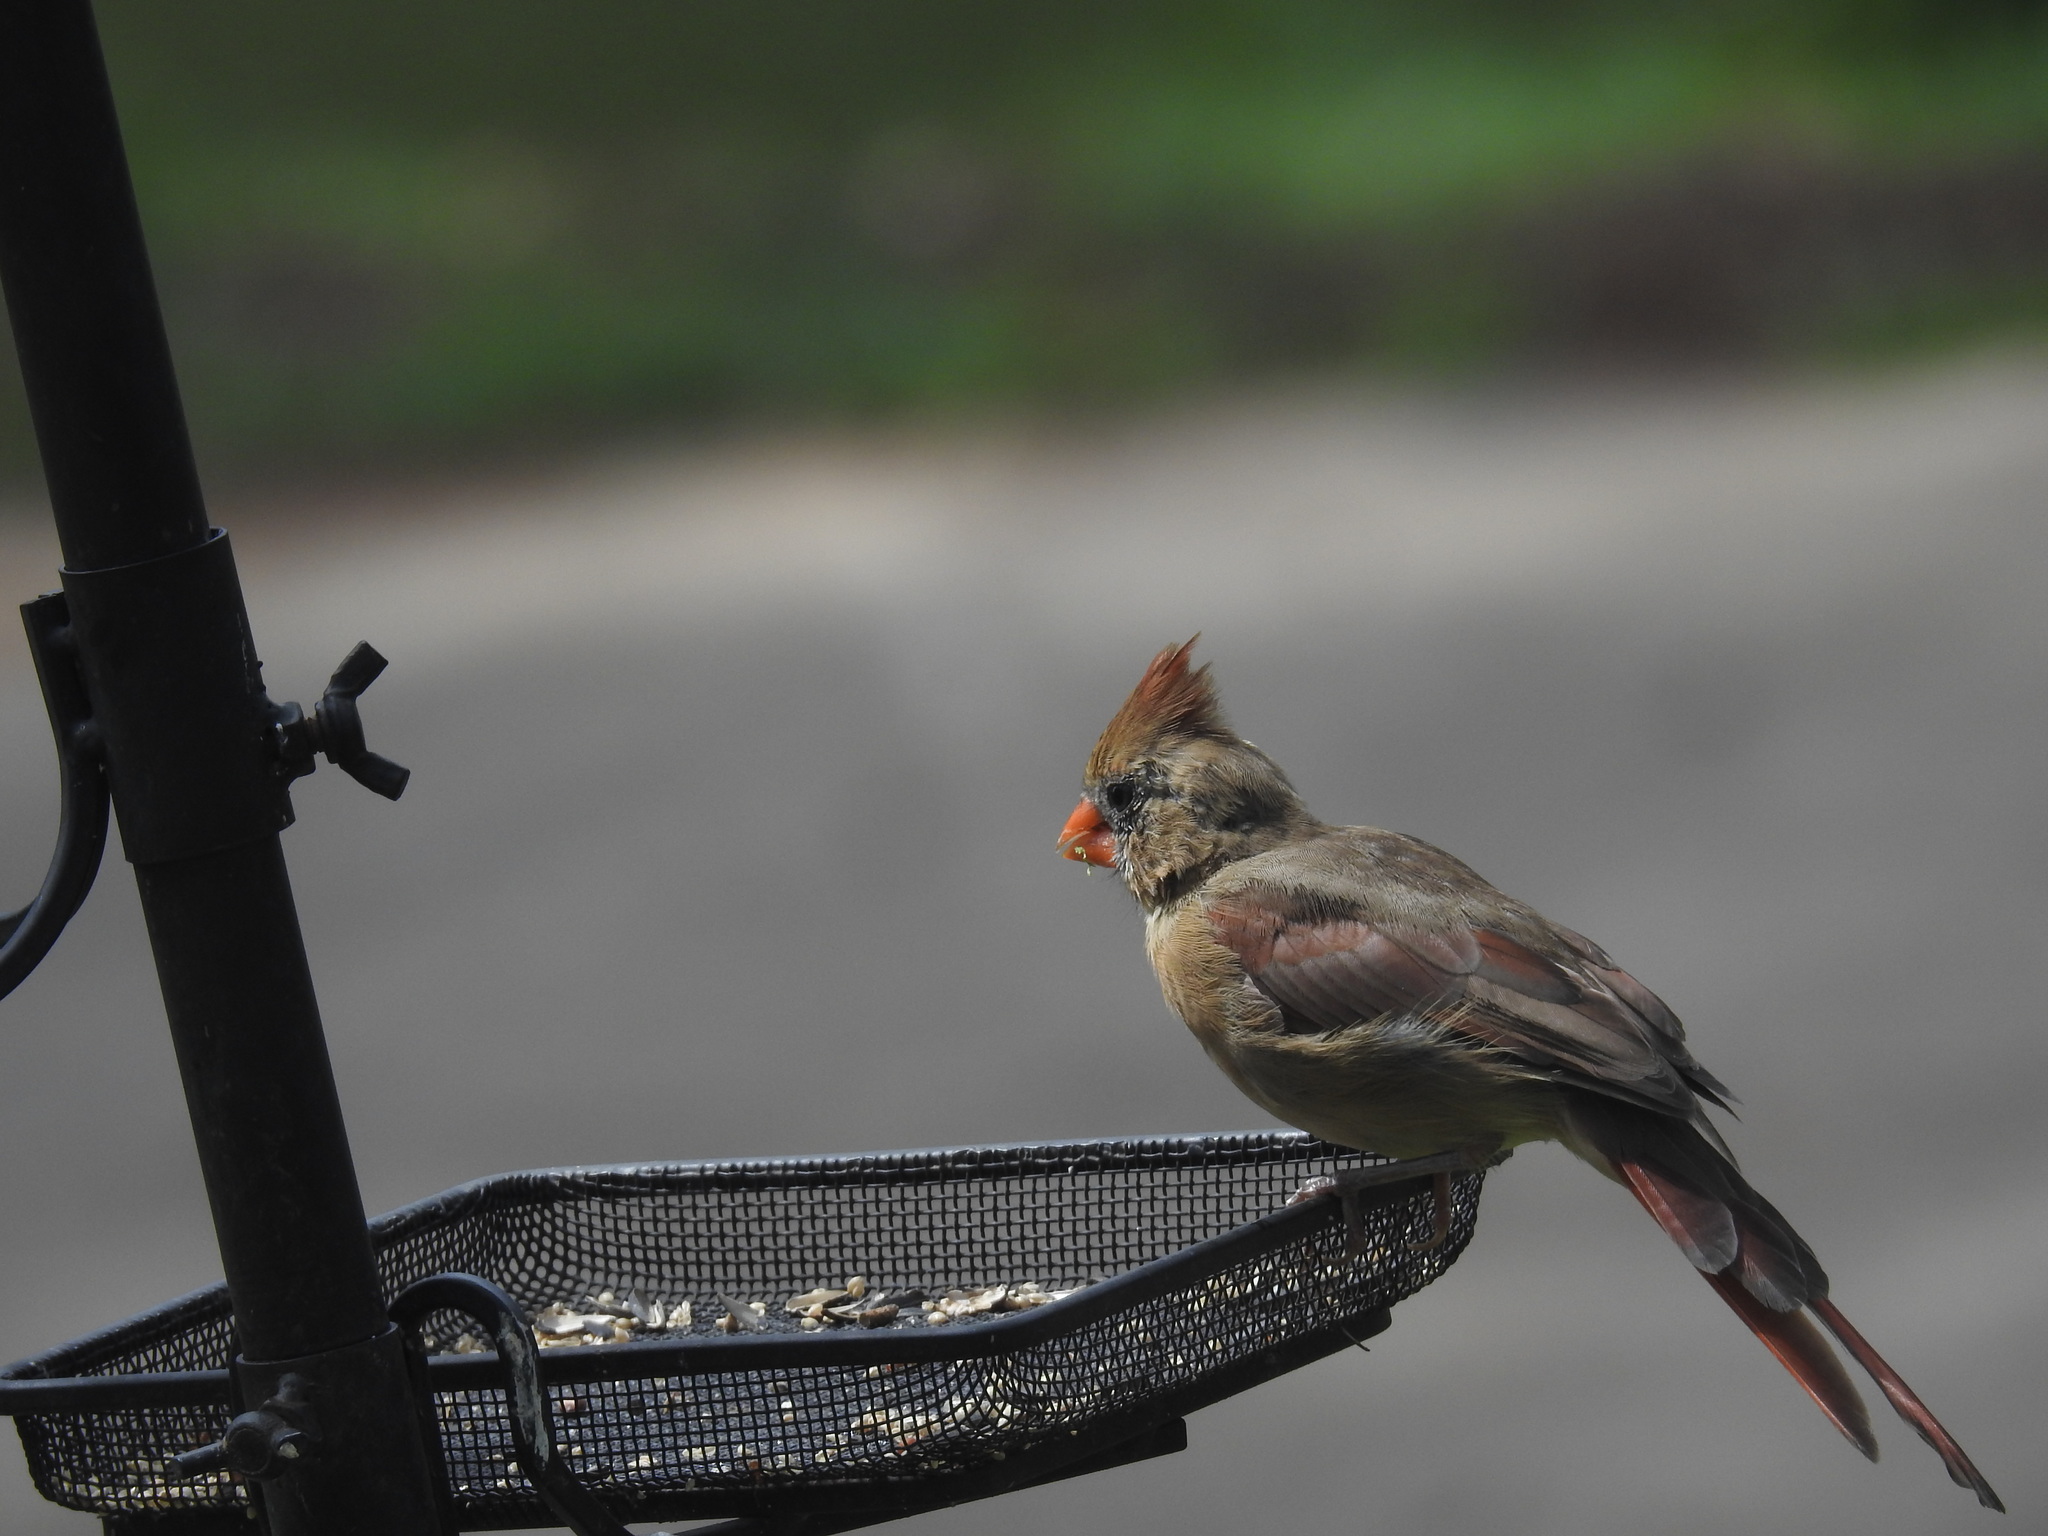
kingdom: Animalia
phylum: Chordata
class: Aves
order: Passeriformes
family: Cardinalidae
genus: Cardinalis
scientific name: Cardinalis cardinalis
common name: Northern cardinal
